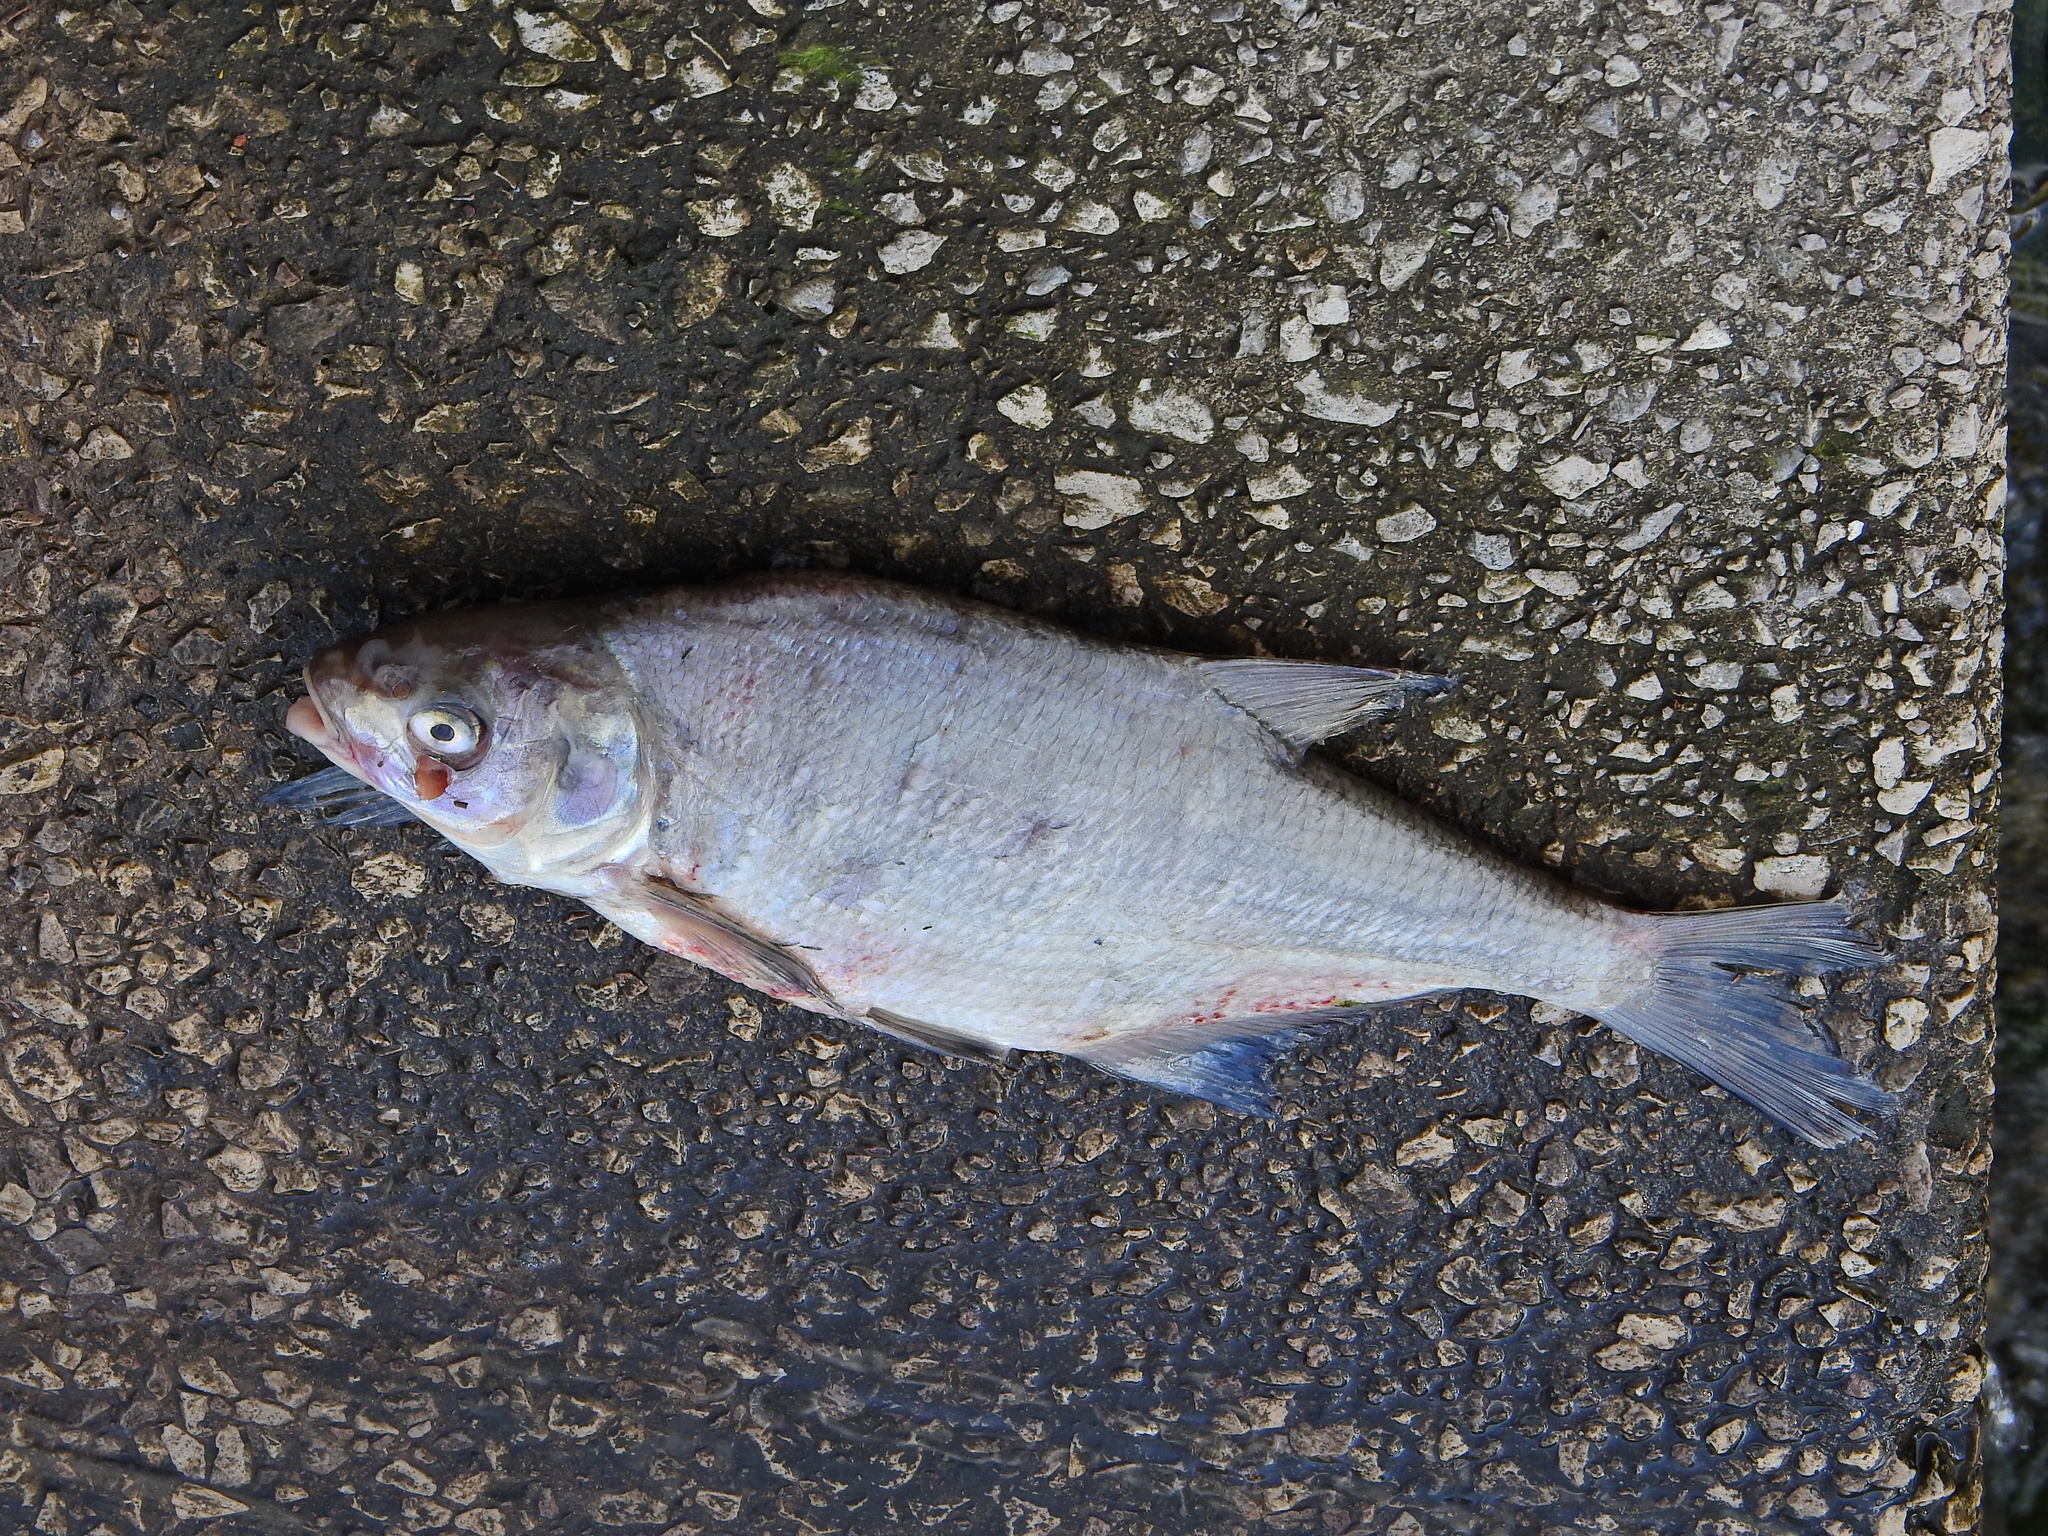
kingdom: Animalia
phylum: Chordata
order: Cypriniformes
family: Cyprinidae
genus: Abramis
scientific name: Abramis brama
